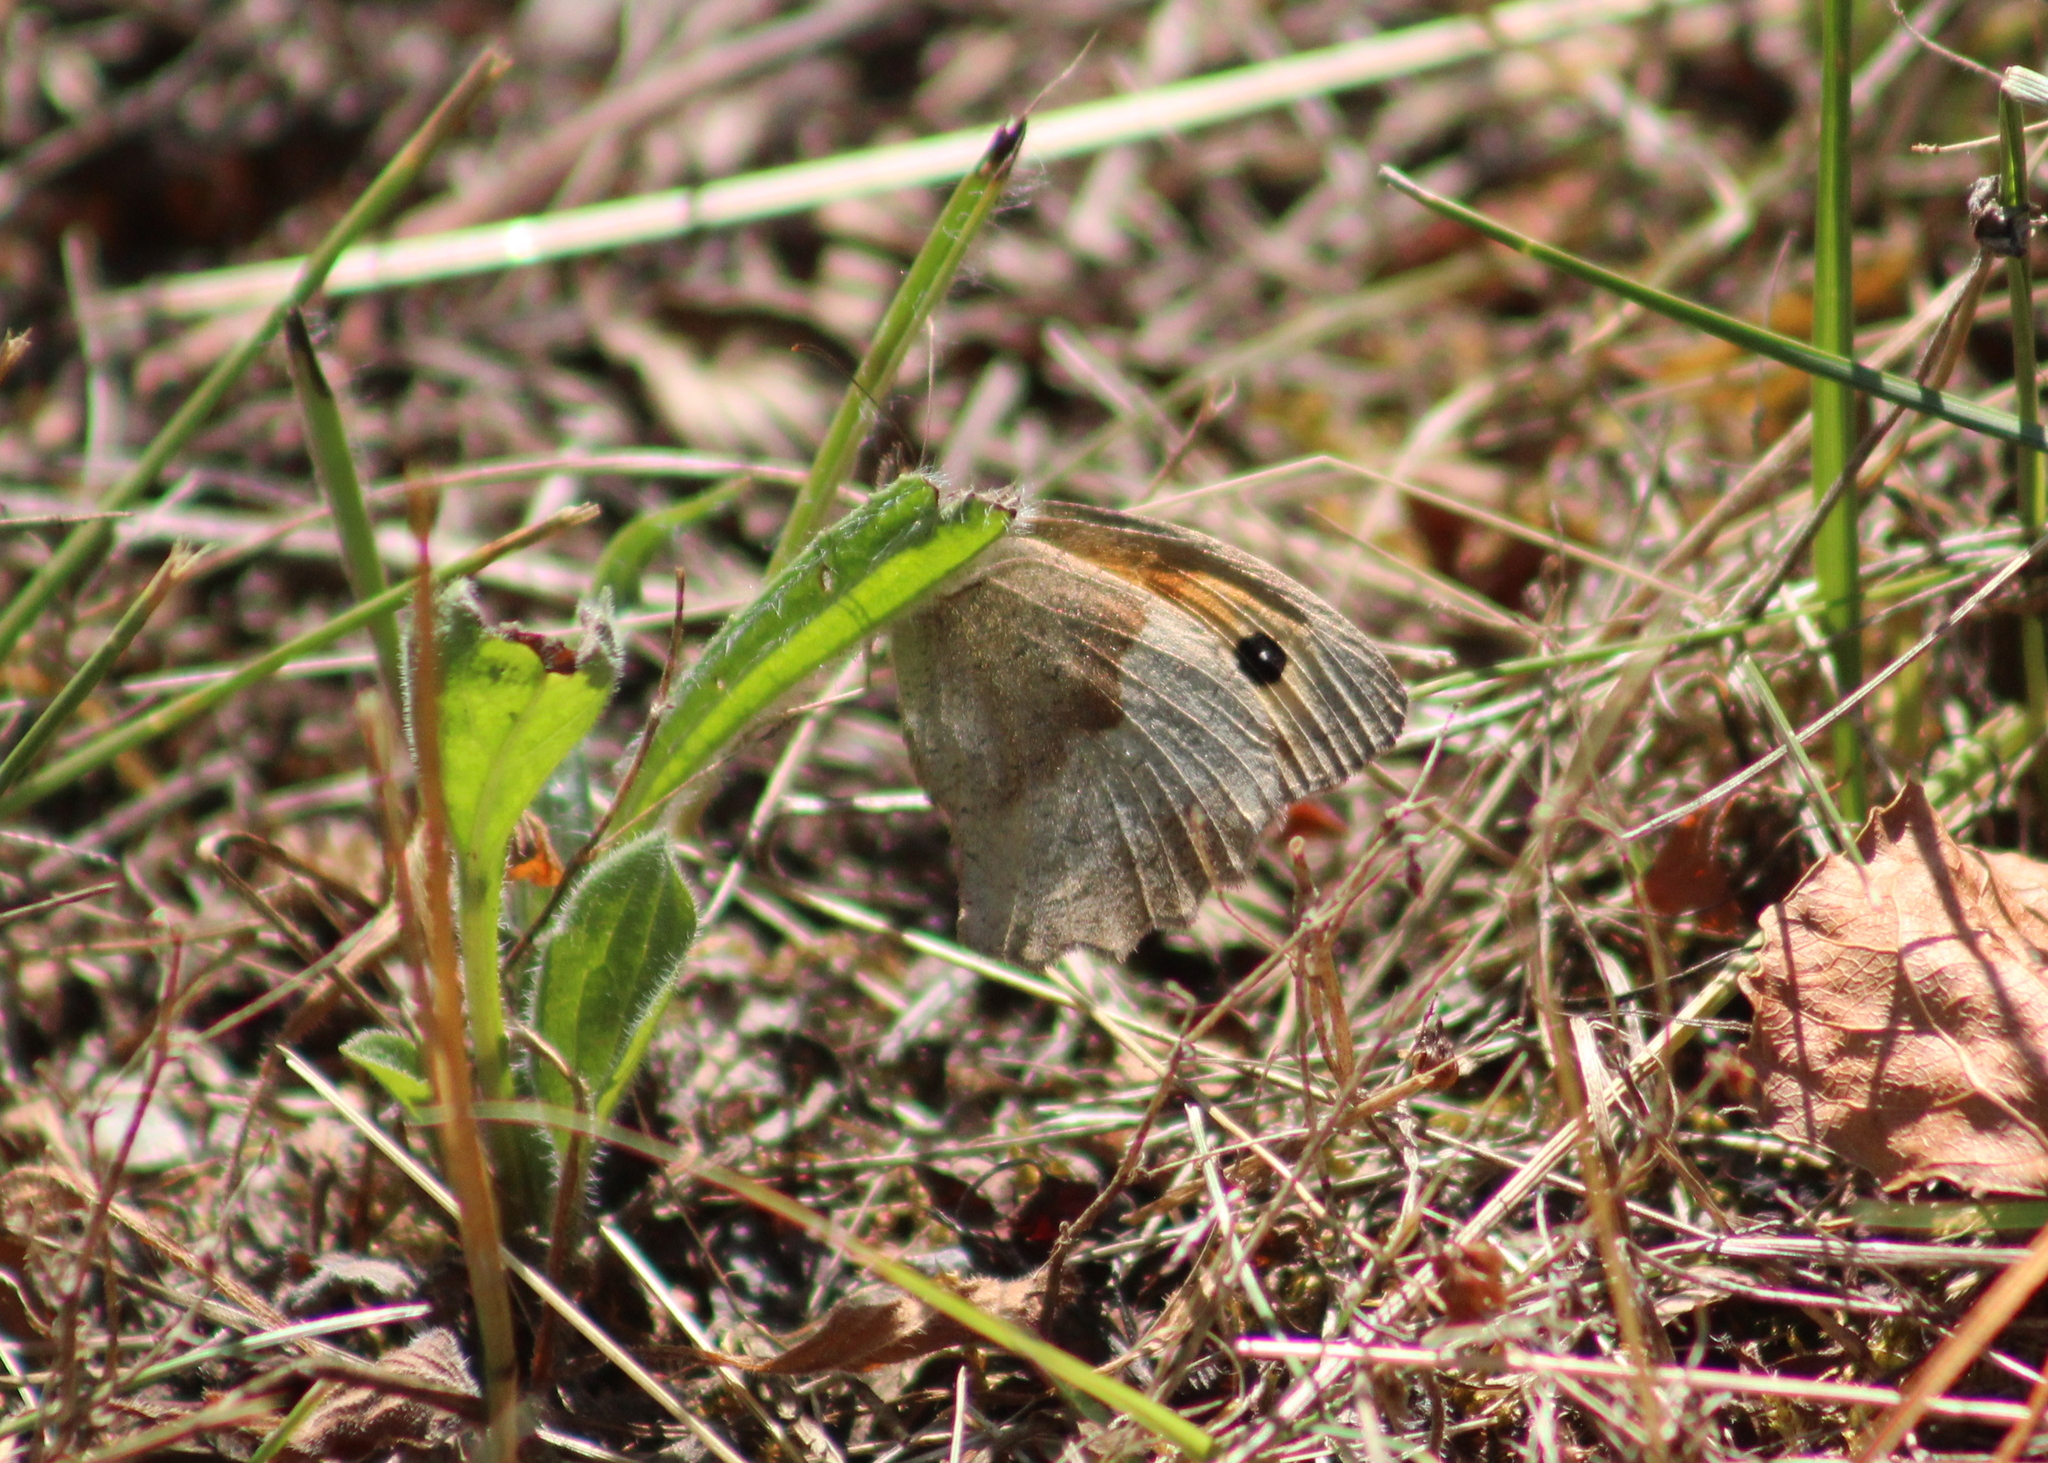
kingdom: Animalia
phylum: Arthropoda
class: Insecta
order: Lepidoptera
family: Nymphalidae
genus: Maniola
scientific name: Maniola jurtina
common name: Meadow brown
